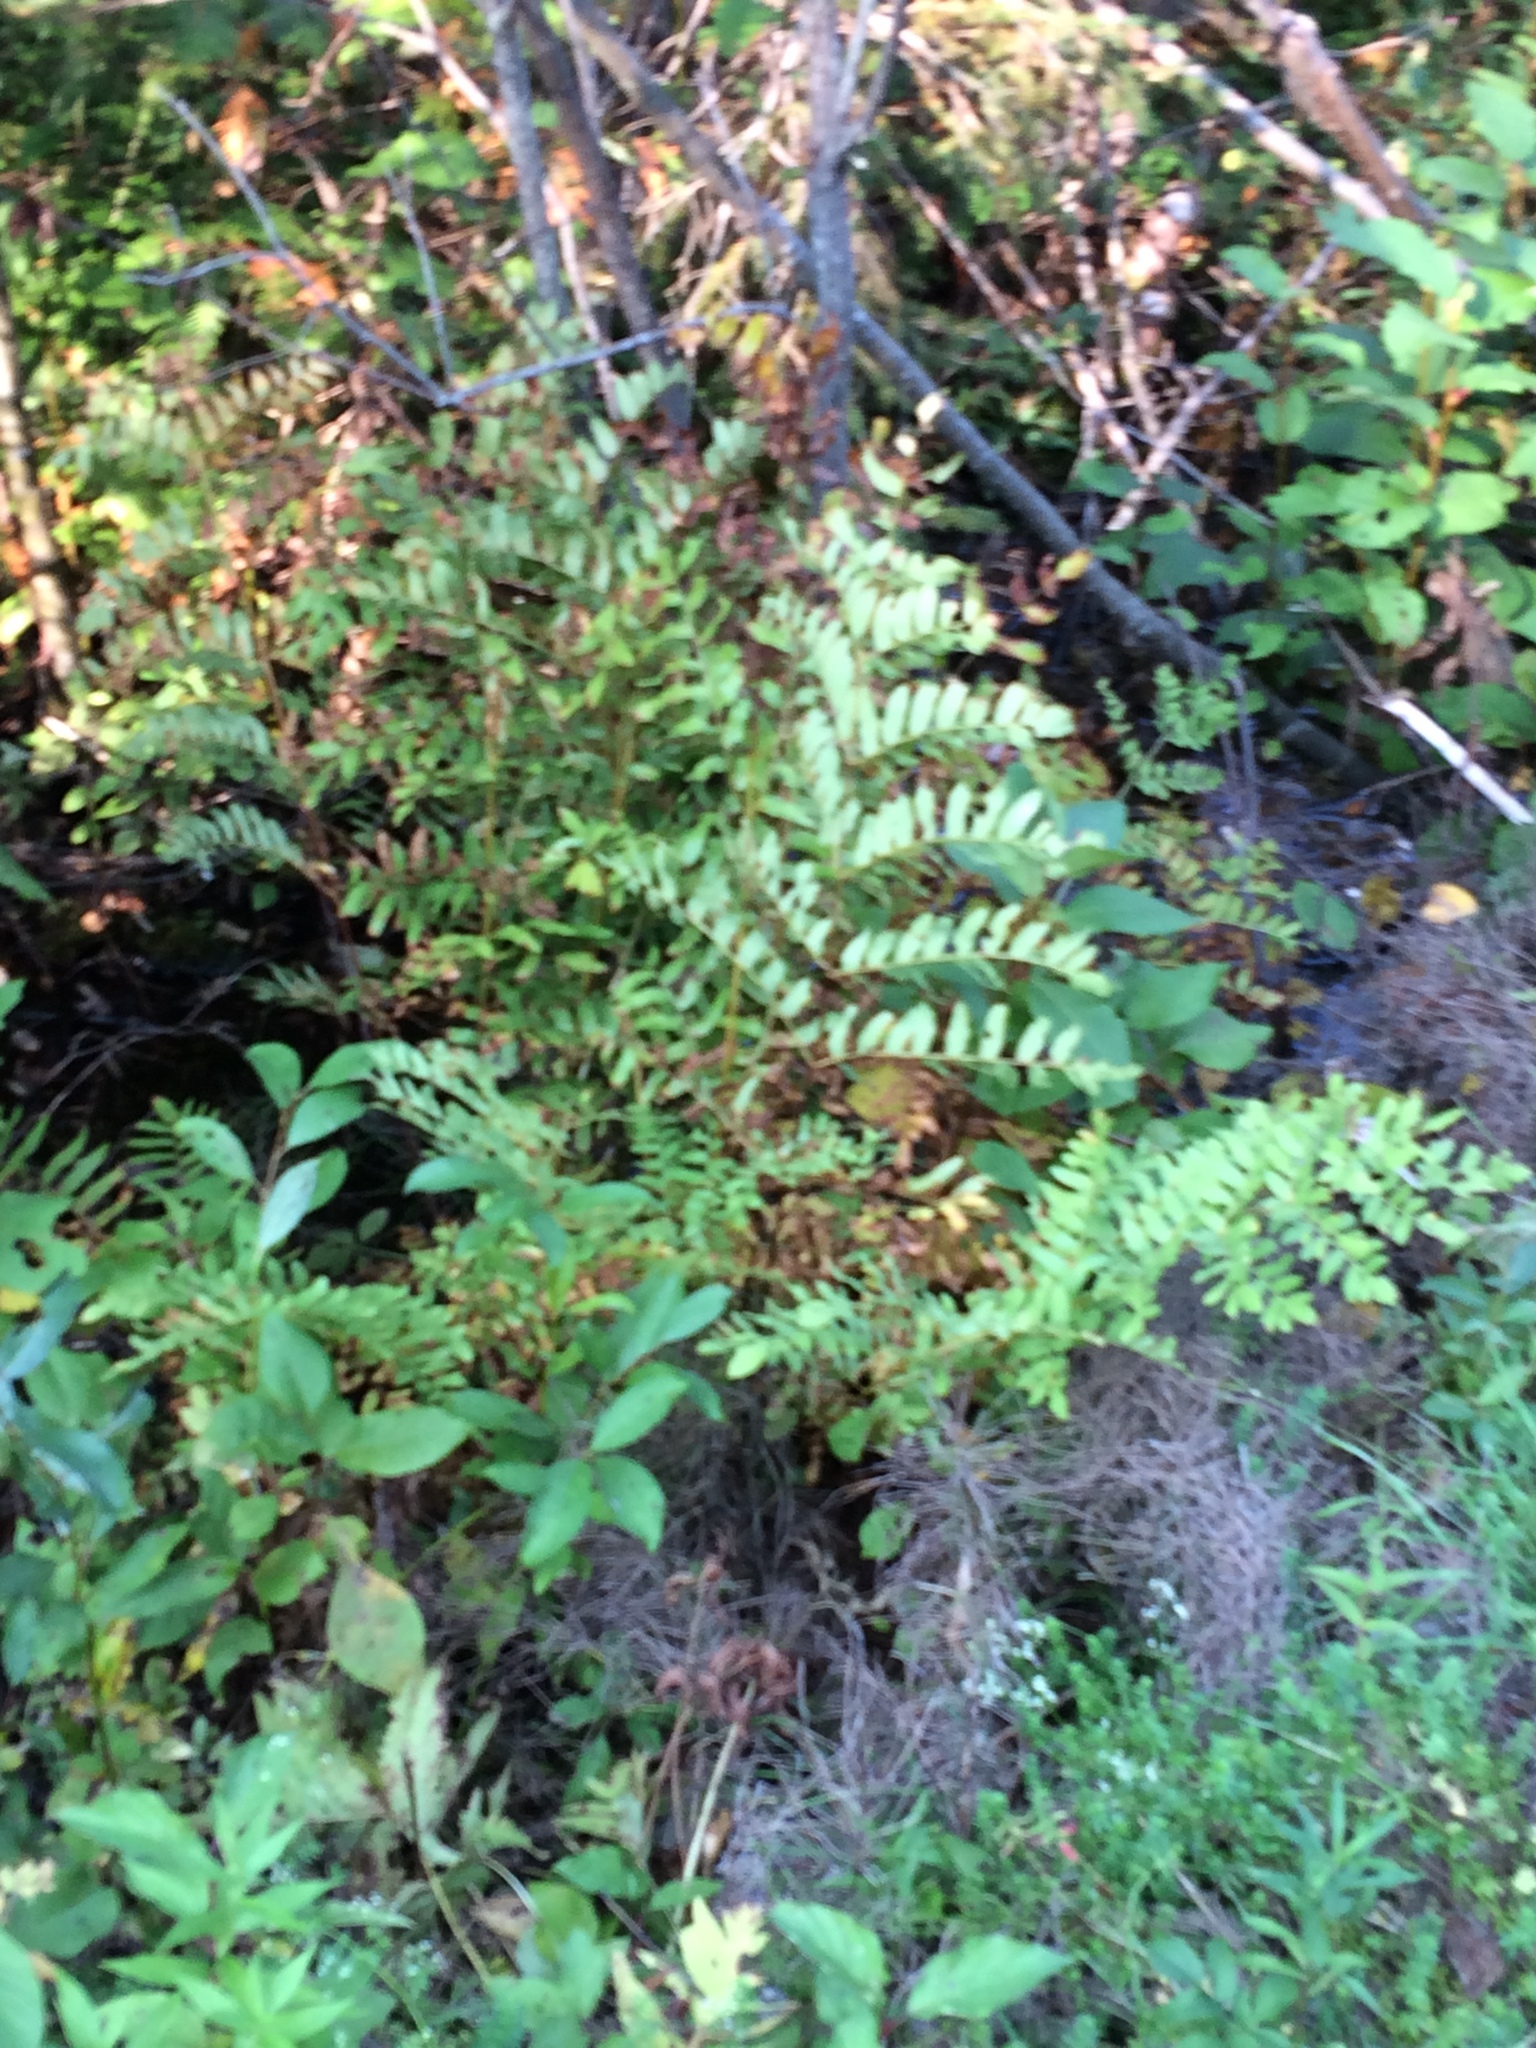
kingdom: Plantae
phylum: Tracheophyta
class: Polypodiopsida
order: Osmundales
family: Osmundaceae
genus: Osmunda
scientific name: Osmunda spectabilis
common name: American royal fern
